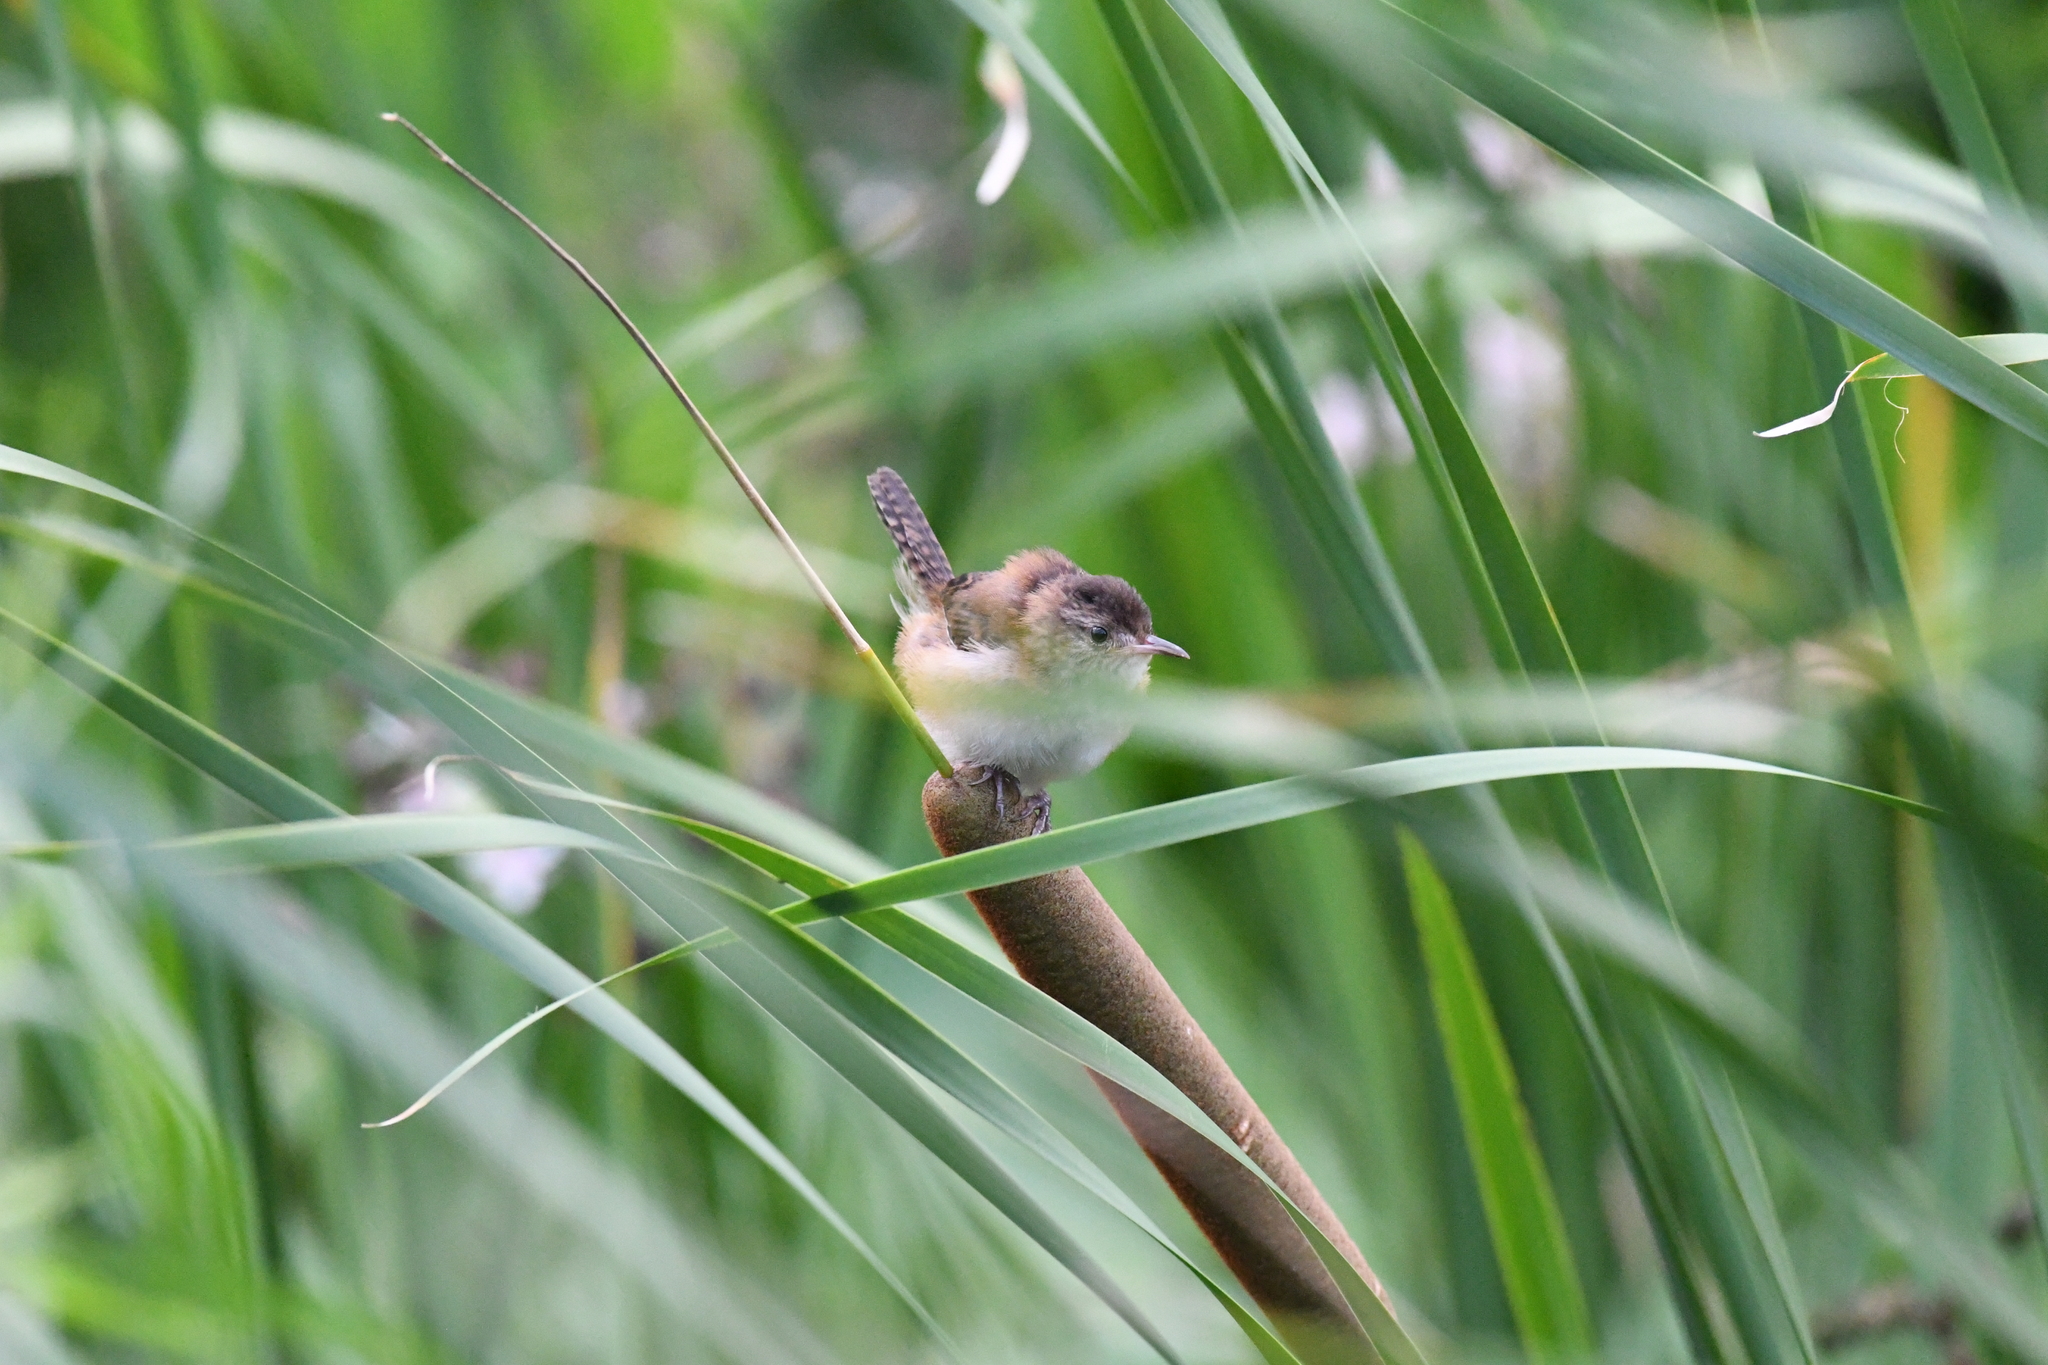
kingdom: Animalia
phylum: Chordata
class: Aves
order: Passeriformes
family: Troglodytidae
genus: Cistothorus
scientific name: Cistothorus palustris
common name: Marsh wren
